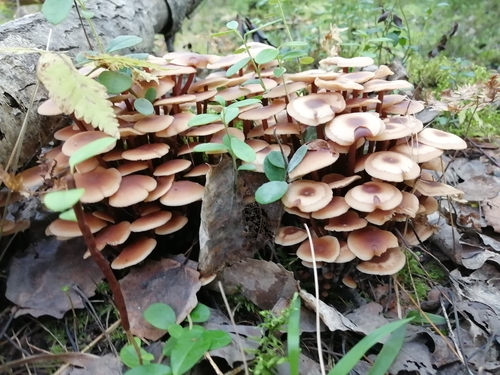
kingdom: Fungi
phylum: Basidiomycota
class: Agaricomycetes
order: Agaricales
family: Omphalotaceae
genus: Collybiopsis
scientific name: Collybiopsis
